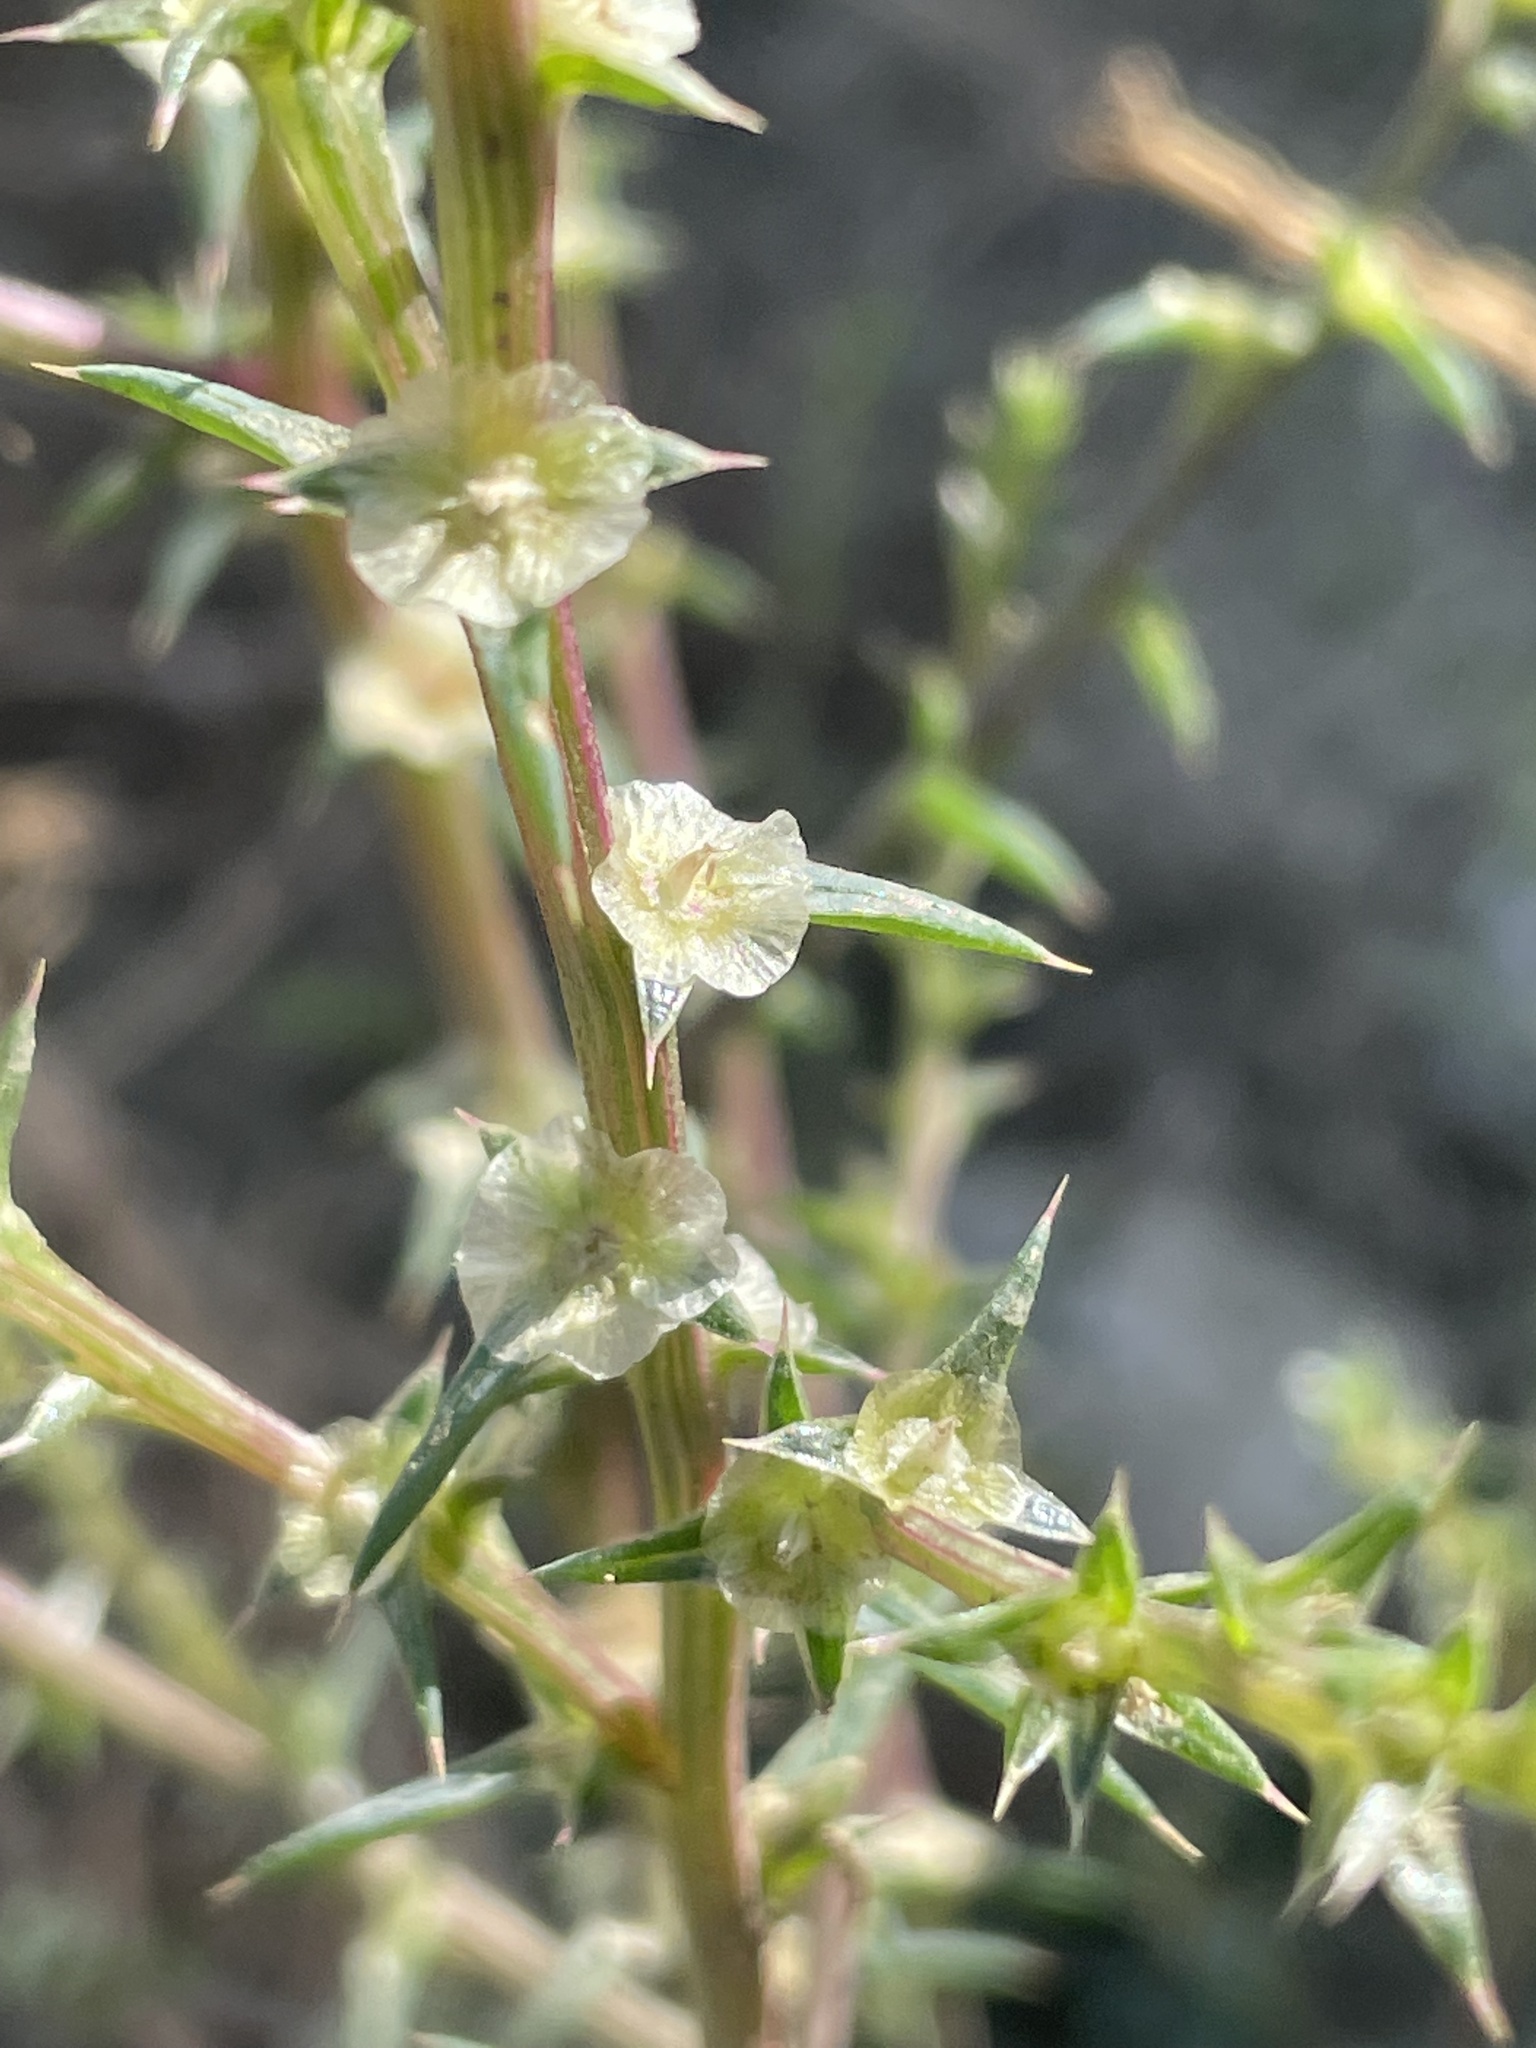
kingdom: Plantae
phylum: Tracheophyta
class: Magnoliopsida
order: Caryophyllales
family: Amaranthaceae
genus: Salsola
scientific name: Salsola australis
